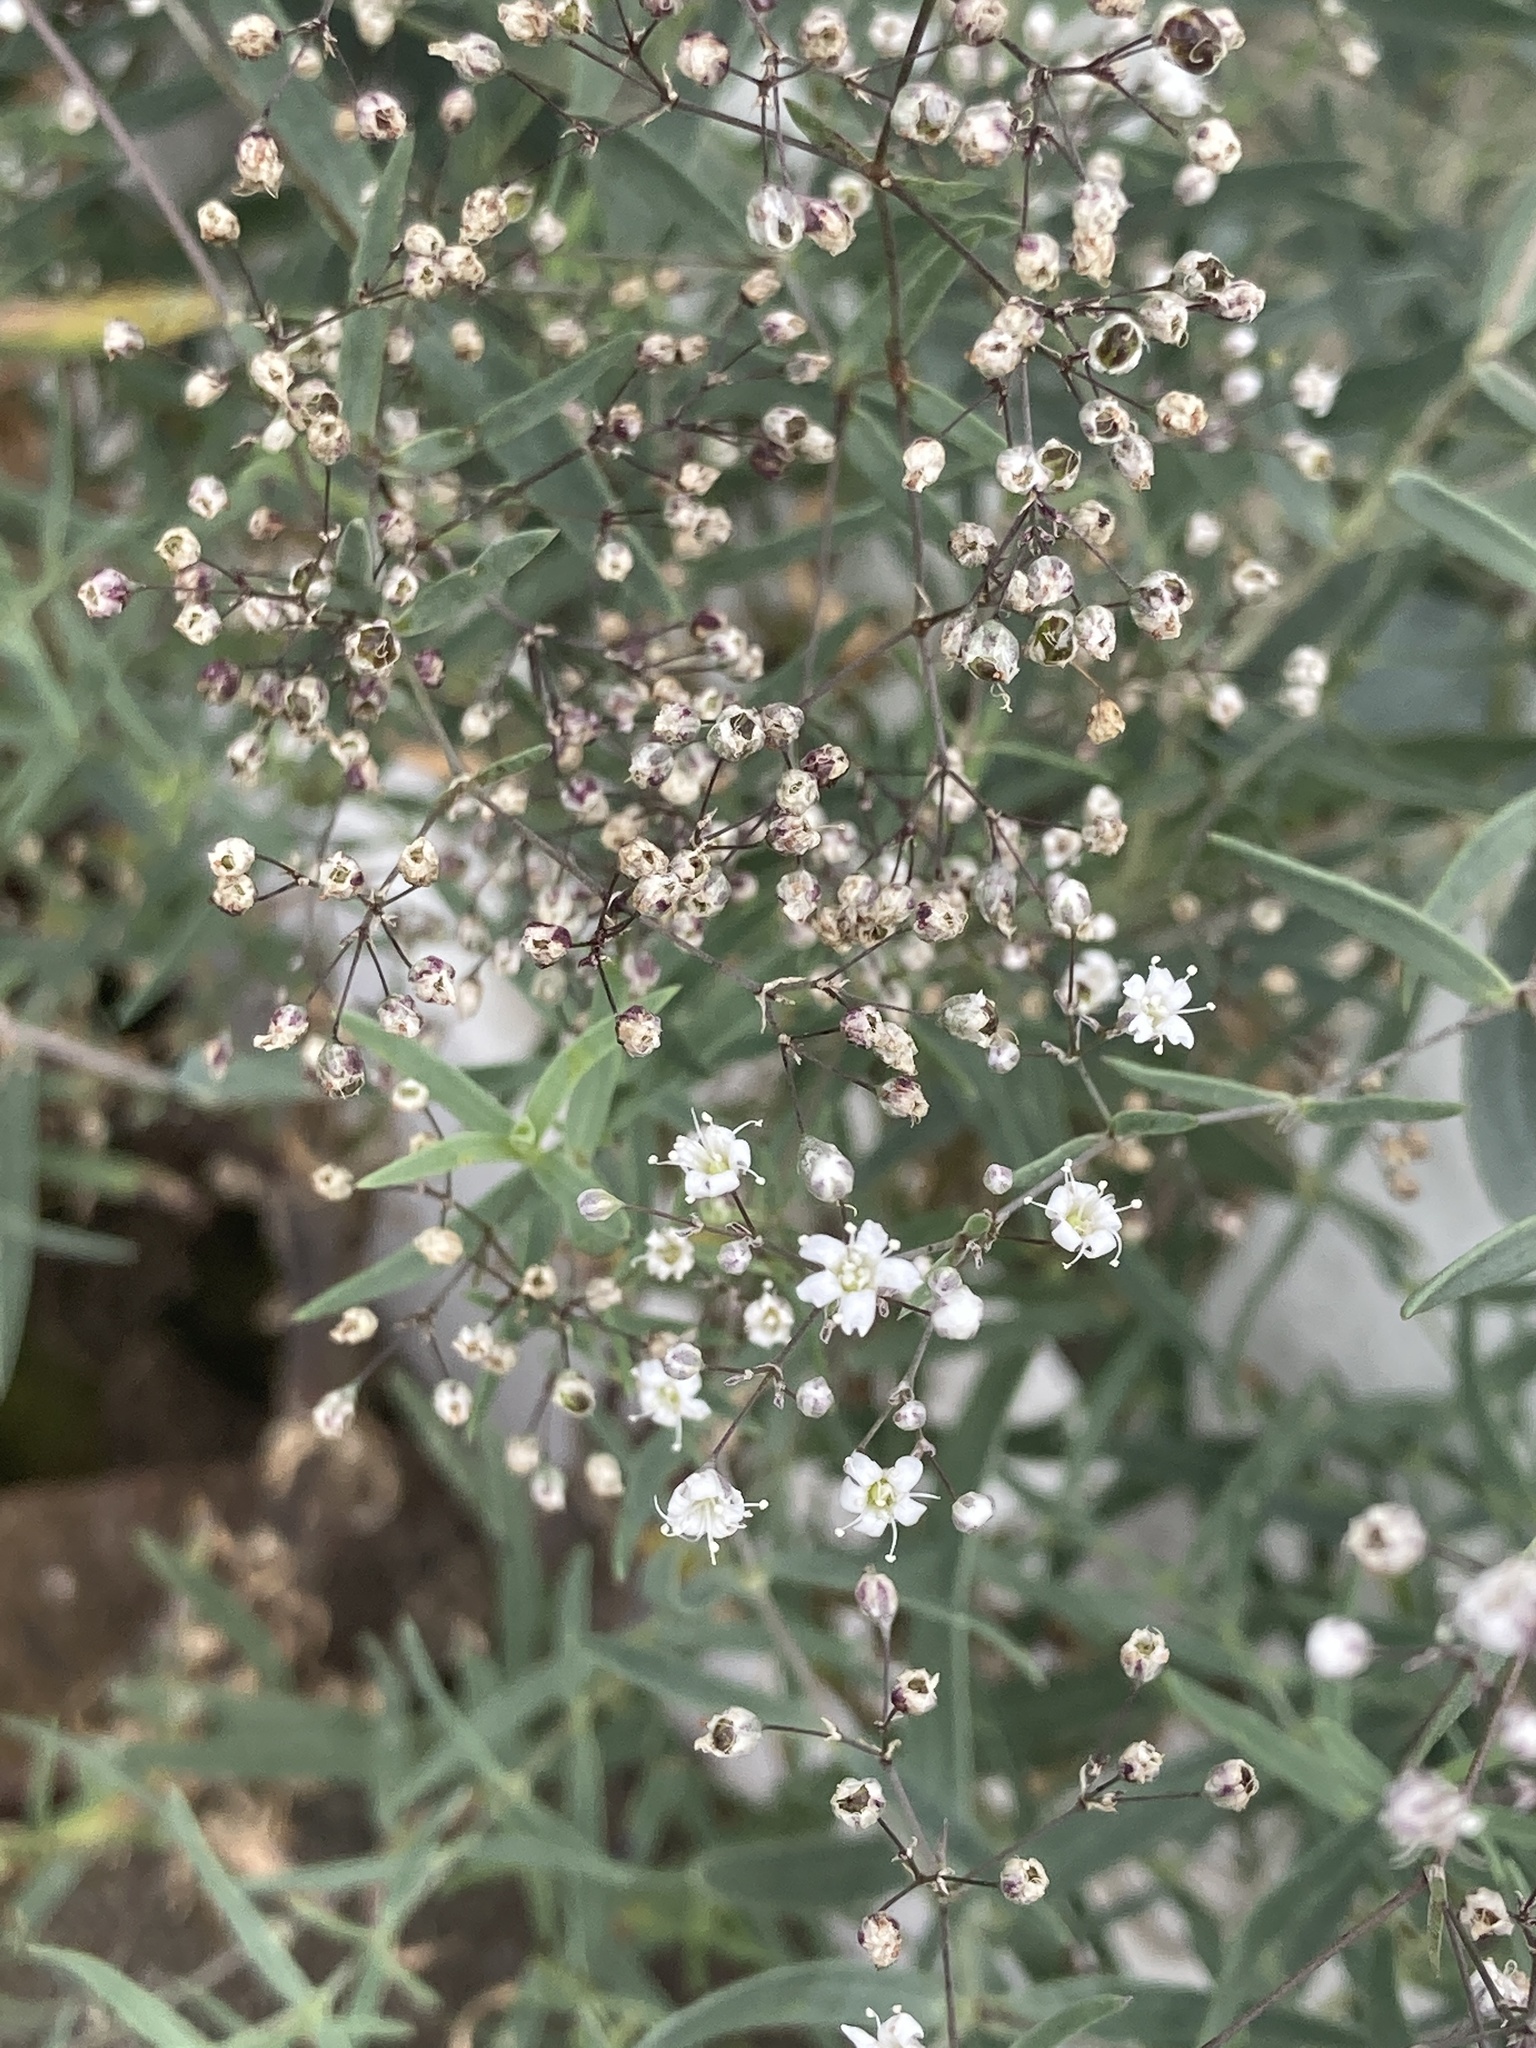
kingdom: Plantae
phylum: Tracheophyta
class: Magnoliopsida
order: Caryophyllales
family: Caryophyllaceae
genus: Gypsophila
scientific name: Gypsophila paniculata
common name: Baby's-breath
